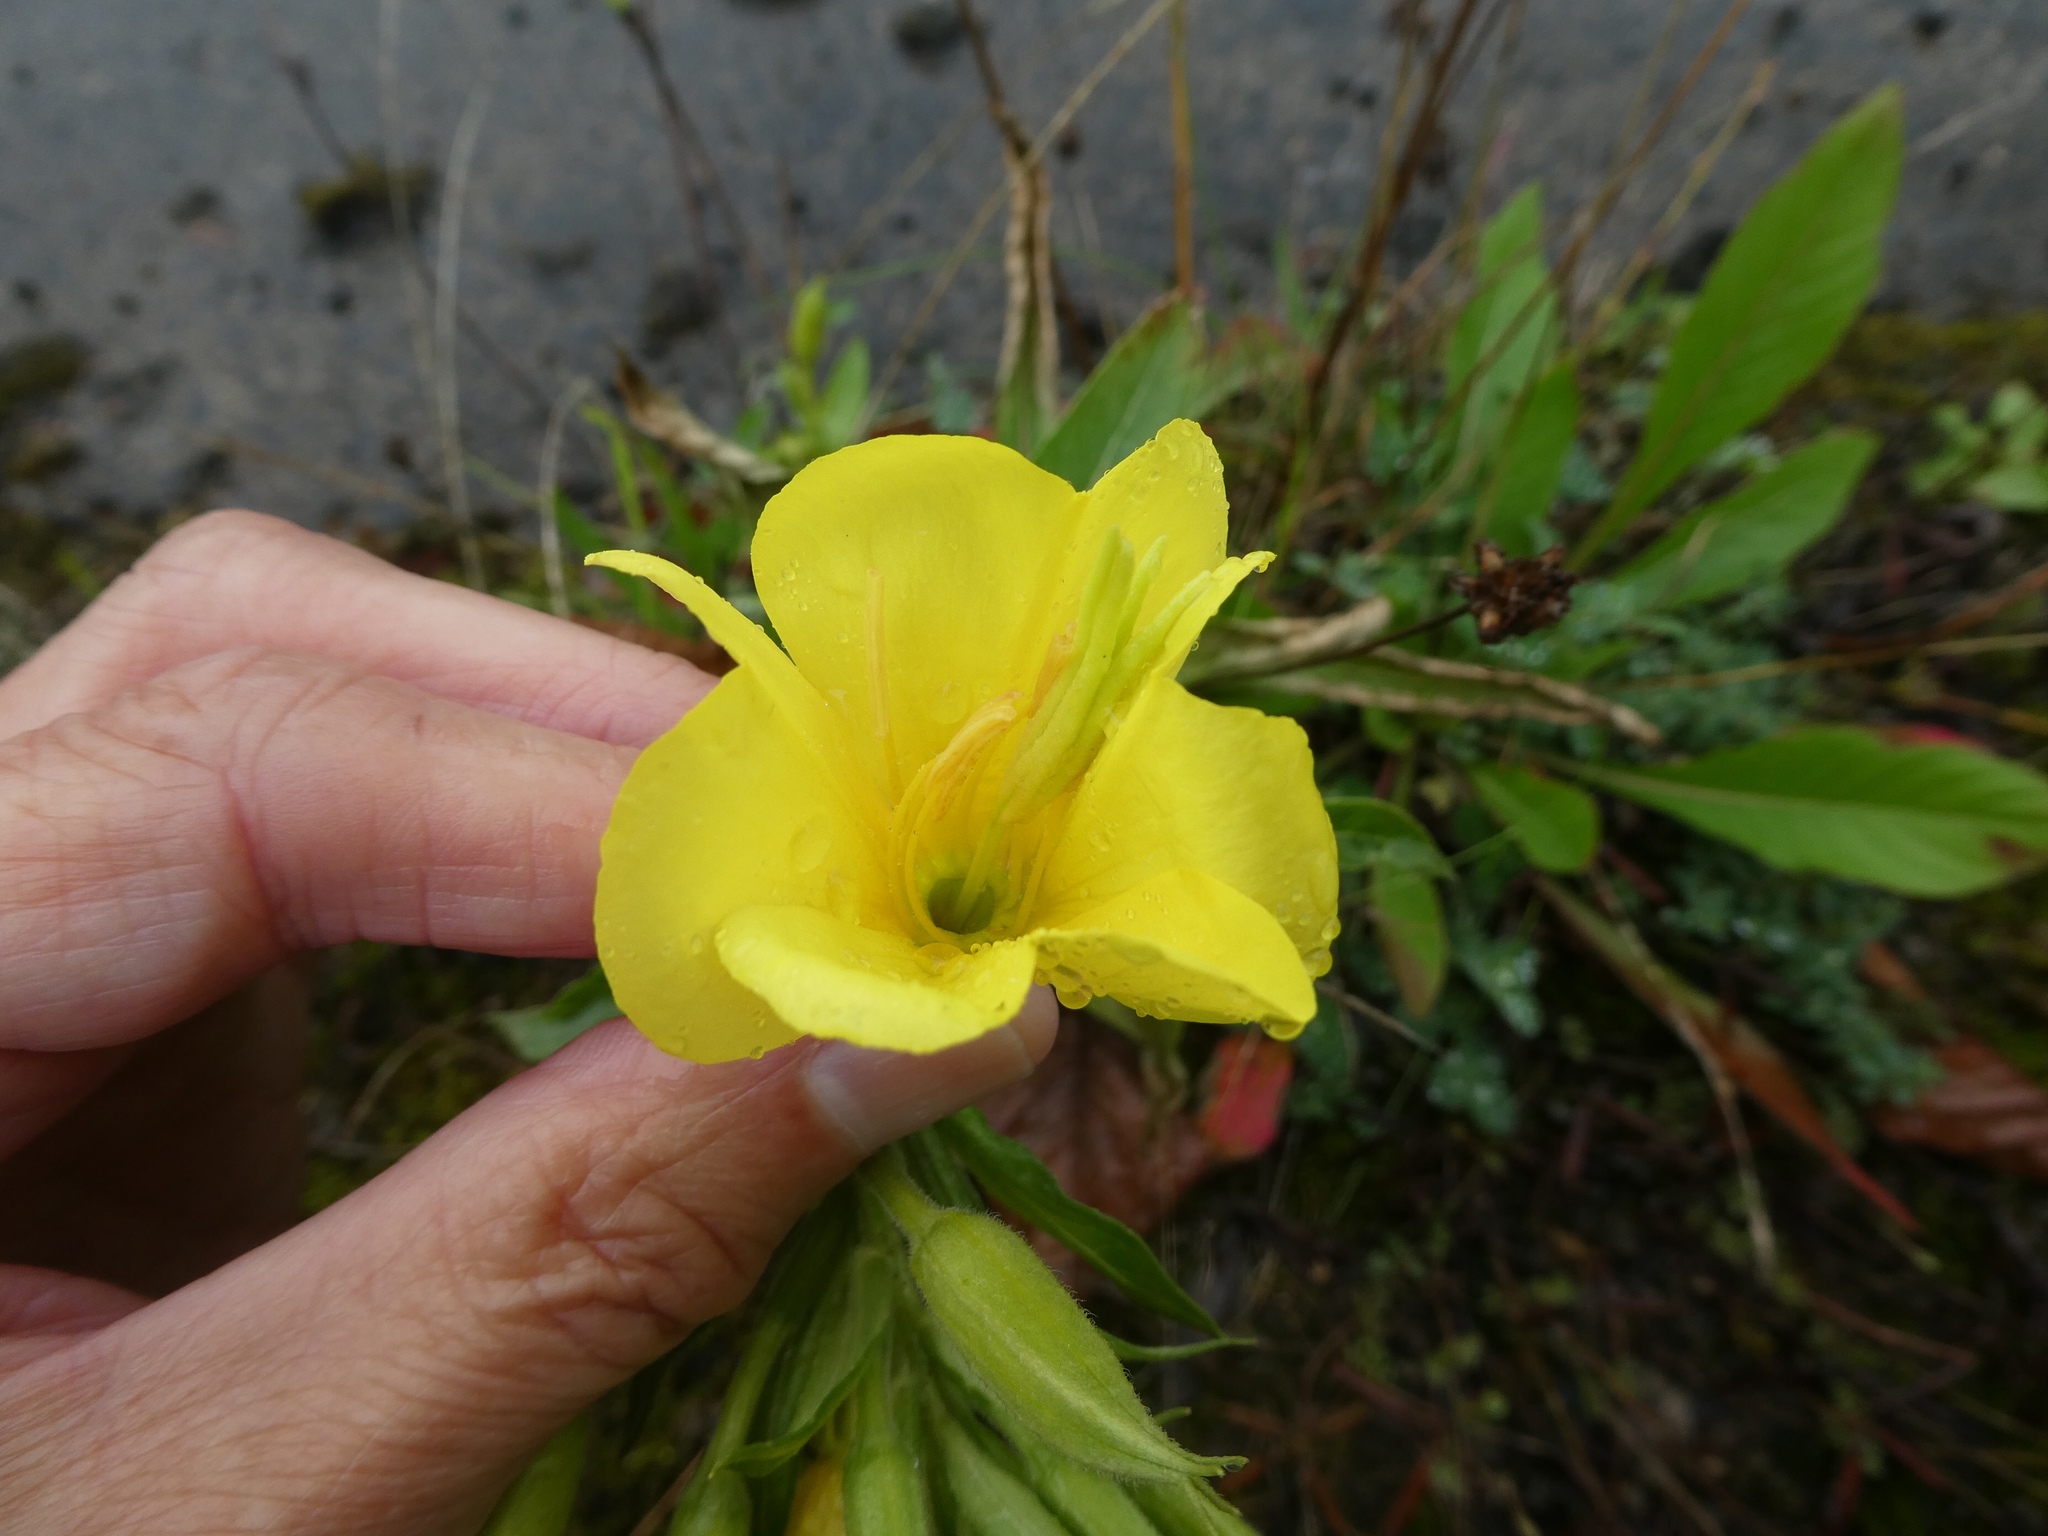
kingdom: Plantae
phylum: Tracheophyta
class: Magnoliopsida
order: Myrtales
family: Onagraceae
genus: Oenothera
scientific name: Oenothera cambrica
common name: Small-flowered evening-primrose
